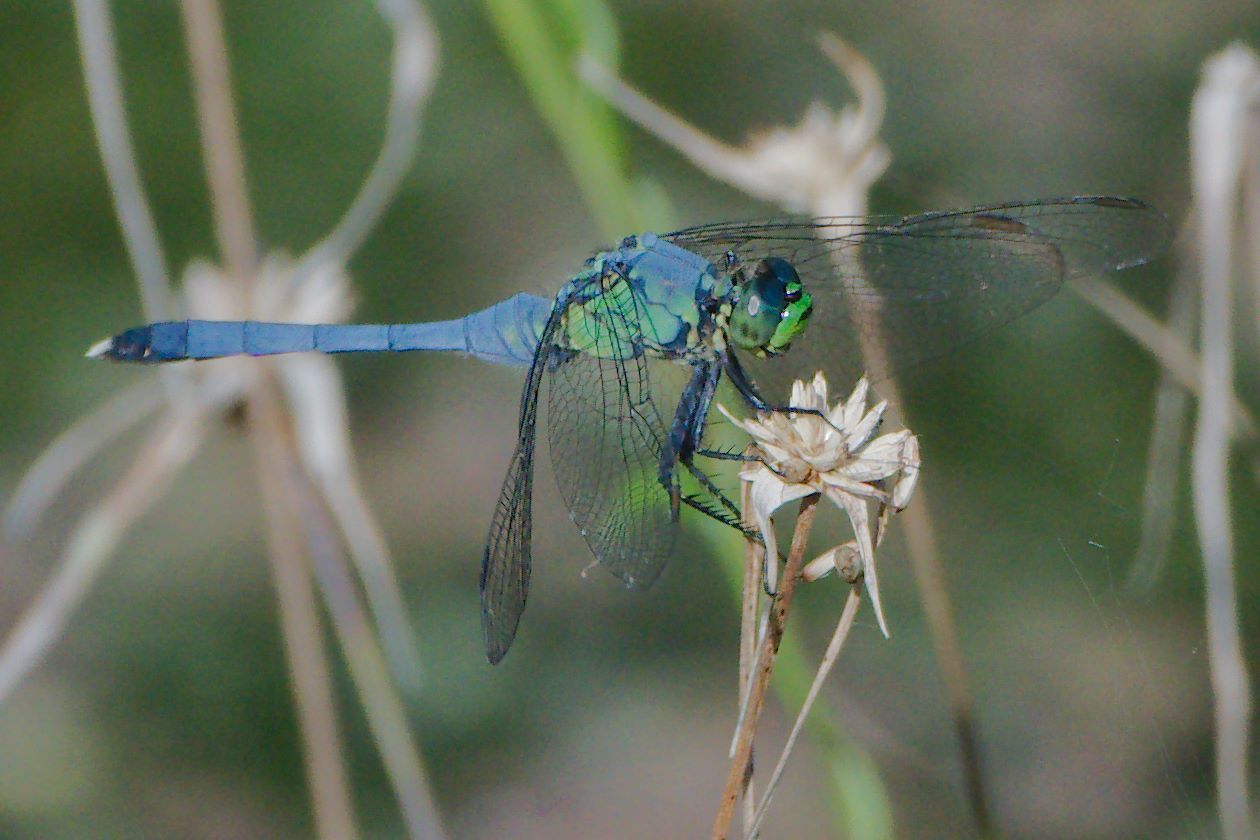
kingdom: Animalia
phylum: Arthropoda
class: Insecta
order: Odonata
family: Libellulidae
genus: Erythemis
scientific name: Erythemis simplicicollis
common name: Eastern pondhawk
